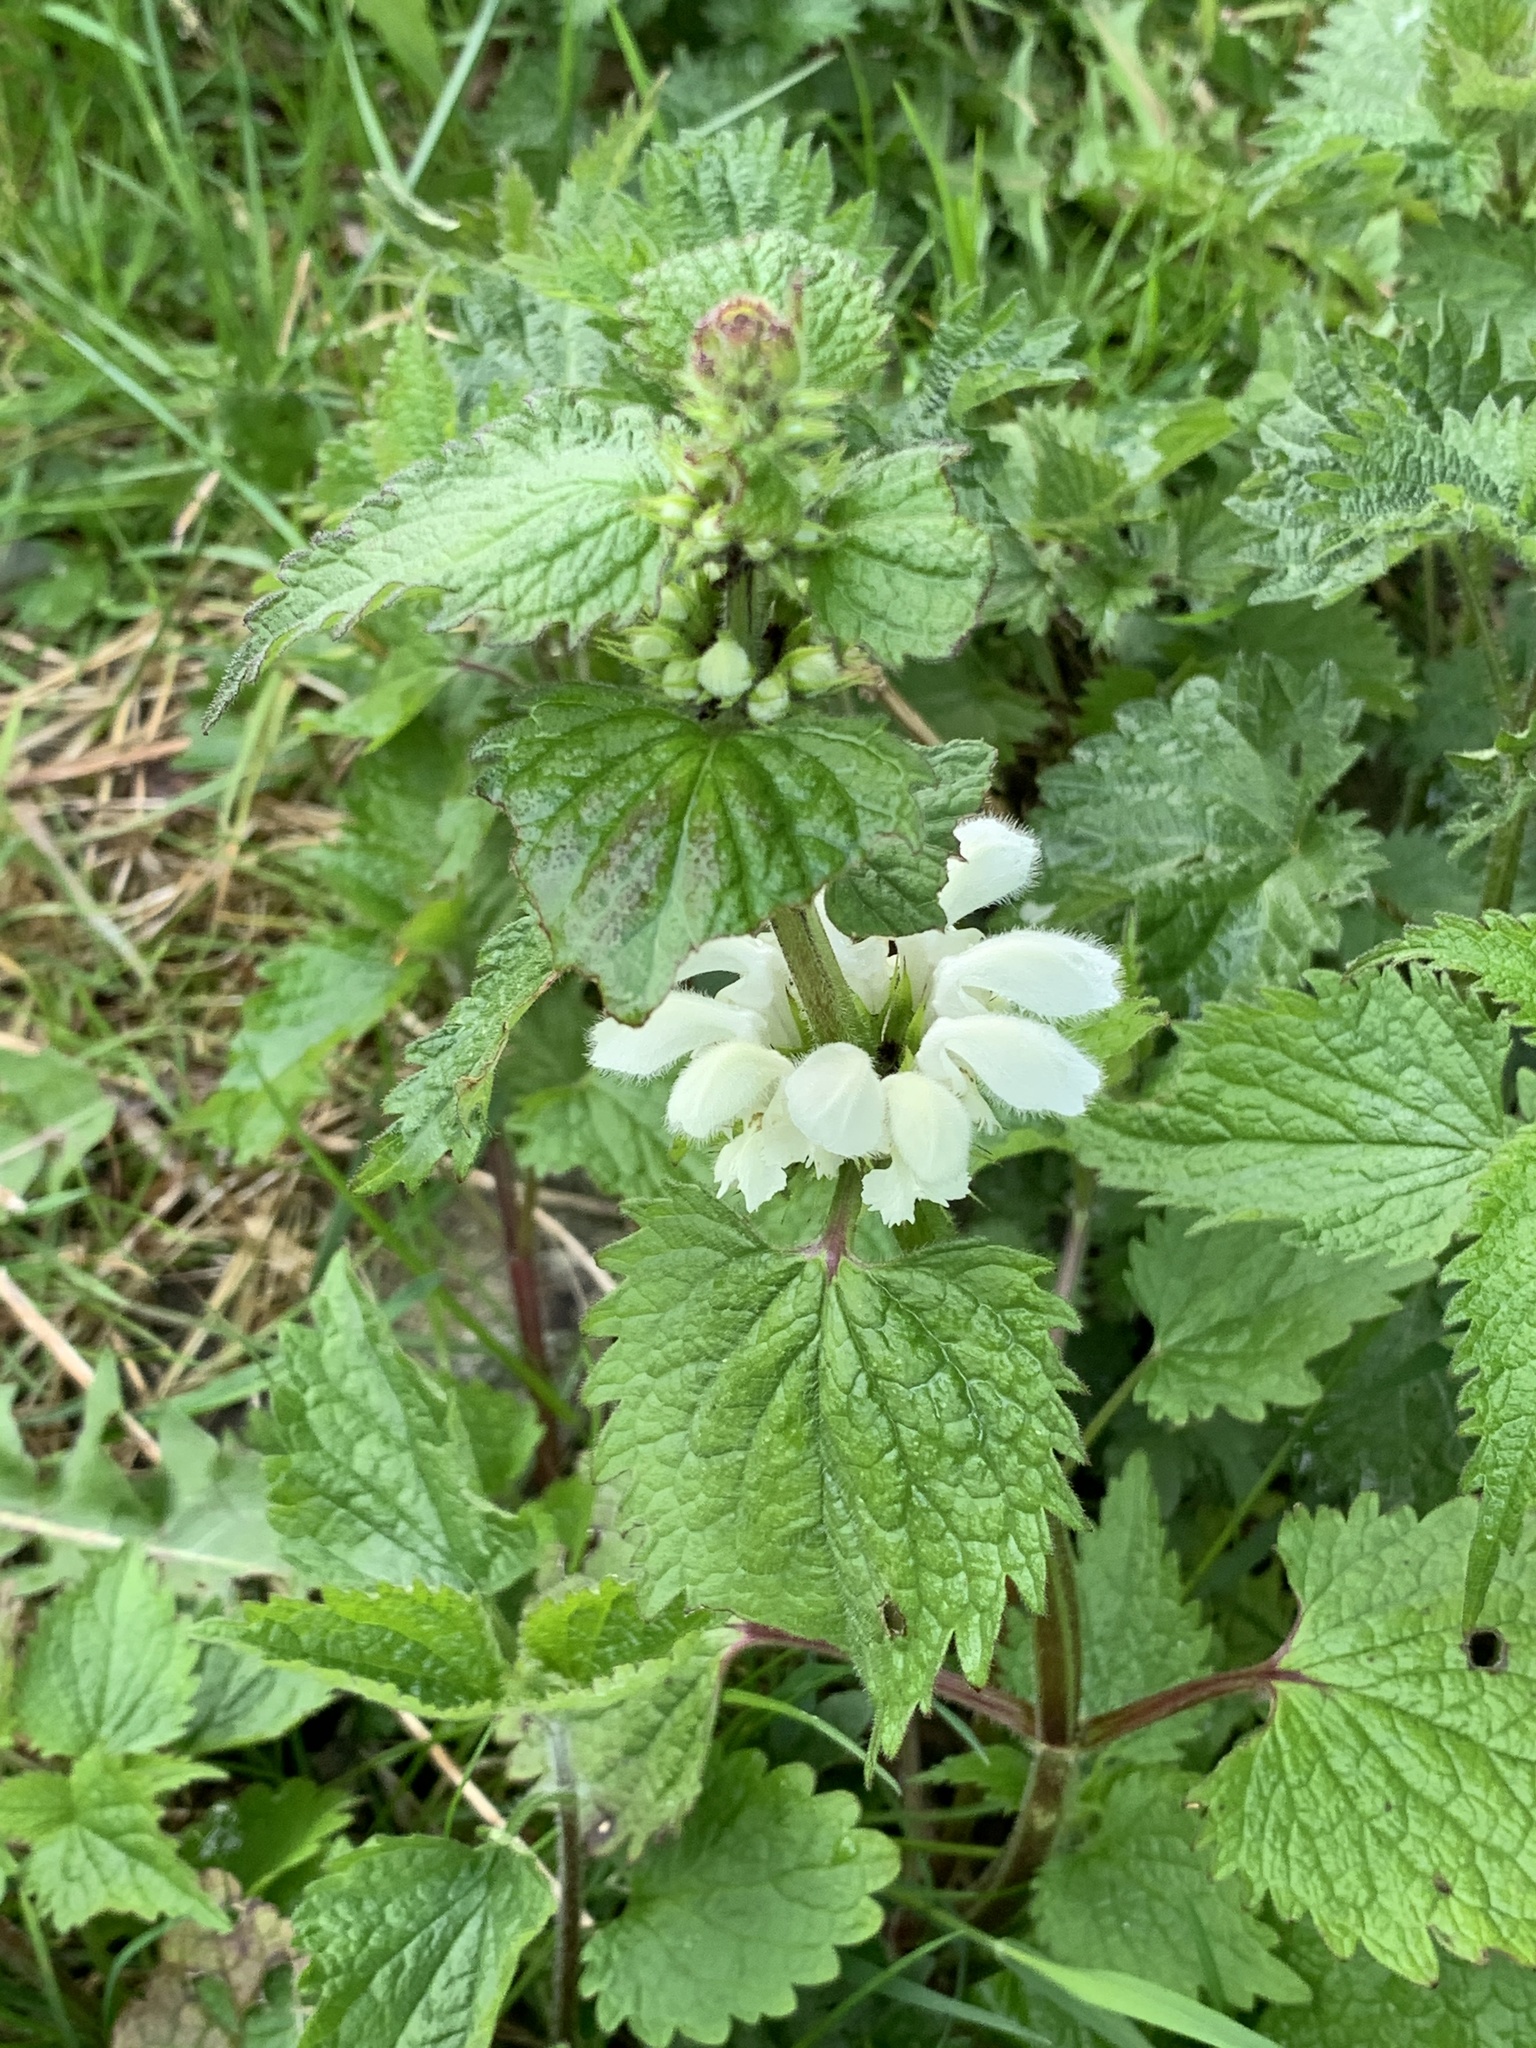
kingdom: Plantae
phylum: Tracheophyta
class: Magnoliopsida
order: Lamiales
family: Lamiaceae
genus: Lamium
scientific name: Lamium album
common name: White dead-nettle
